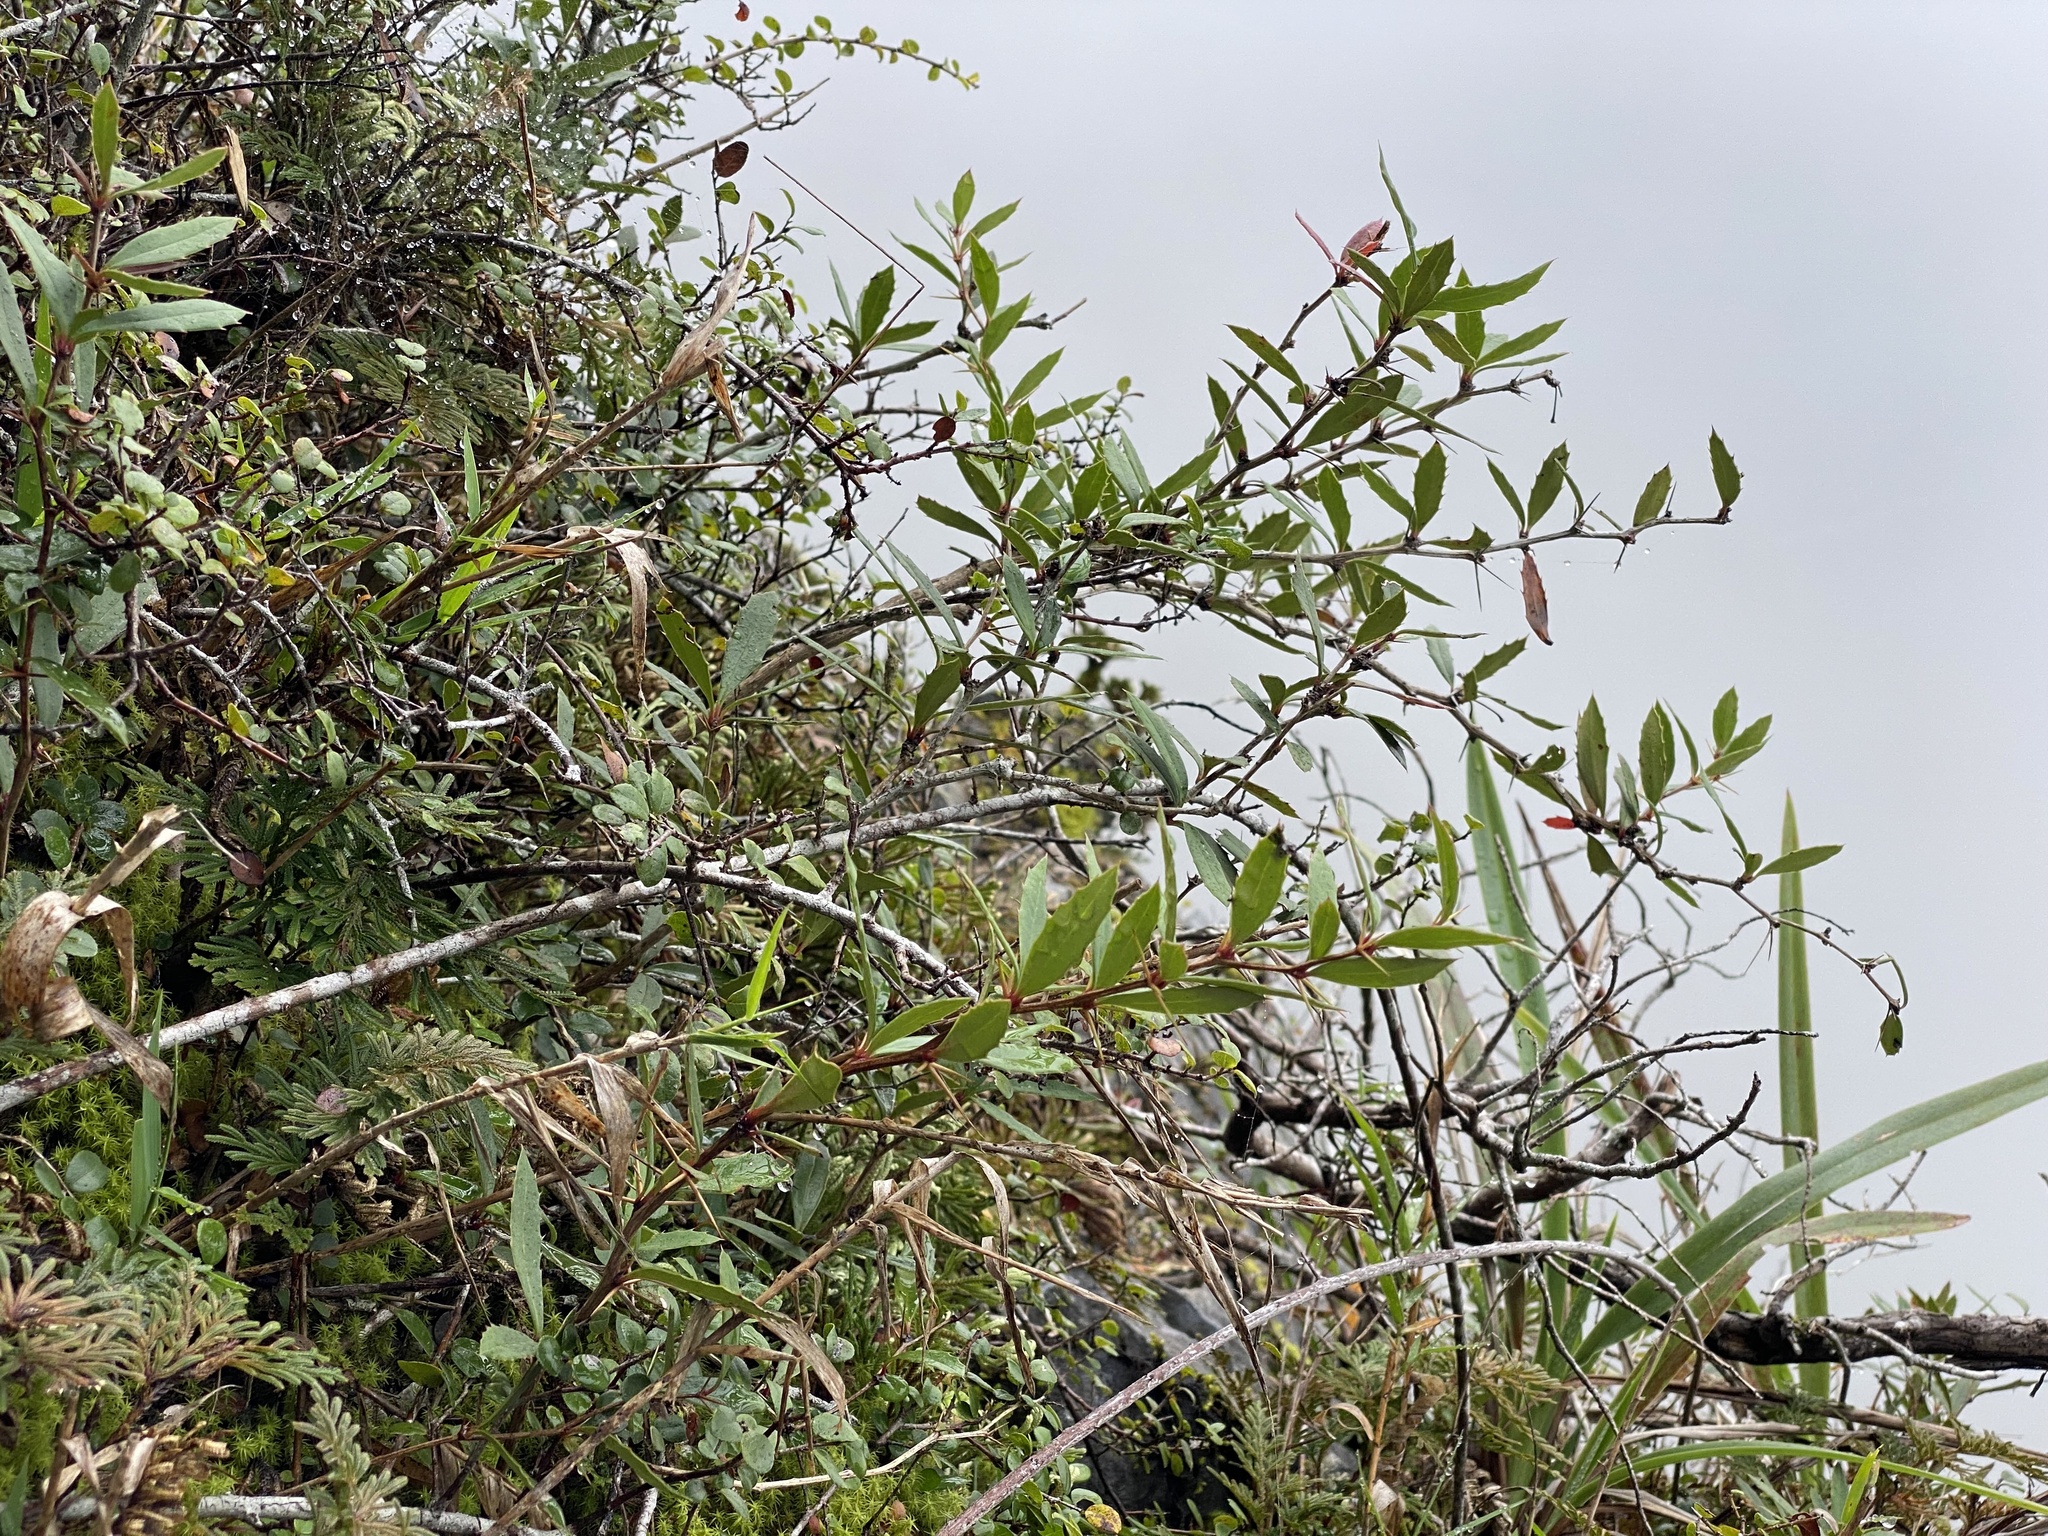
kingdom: Plantae
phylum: Tracheophyta
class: Magnoliopsida
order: Ranunculales
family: Berberidaceae
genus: Berberis
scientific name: Berberis tarokoensis
